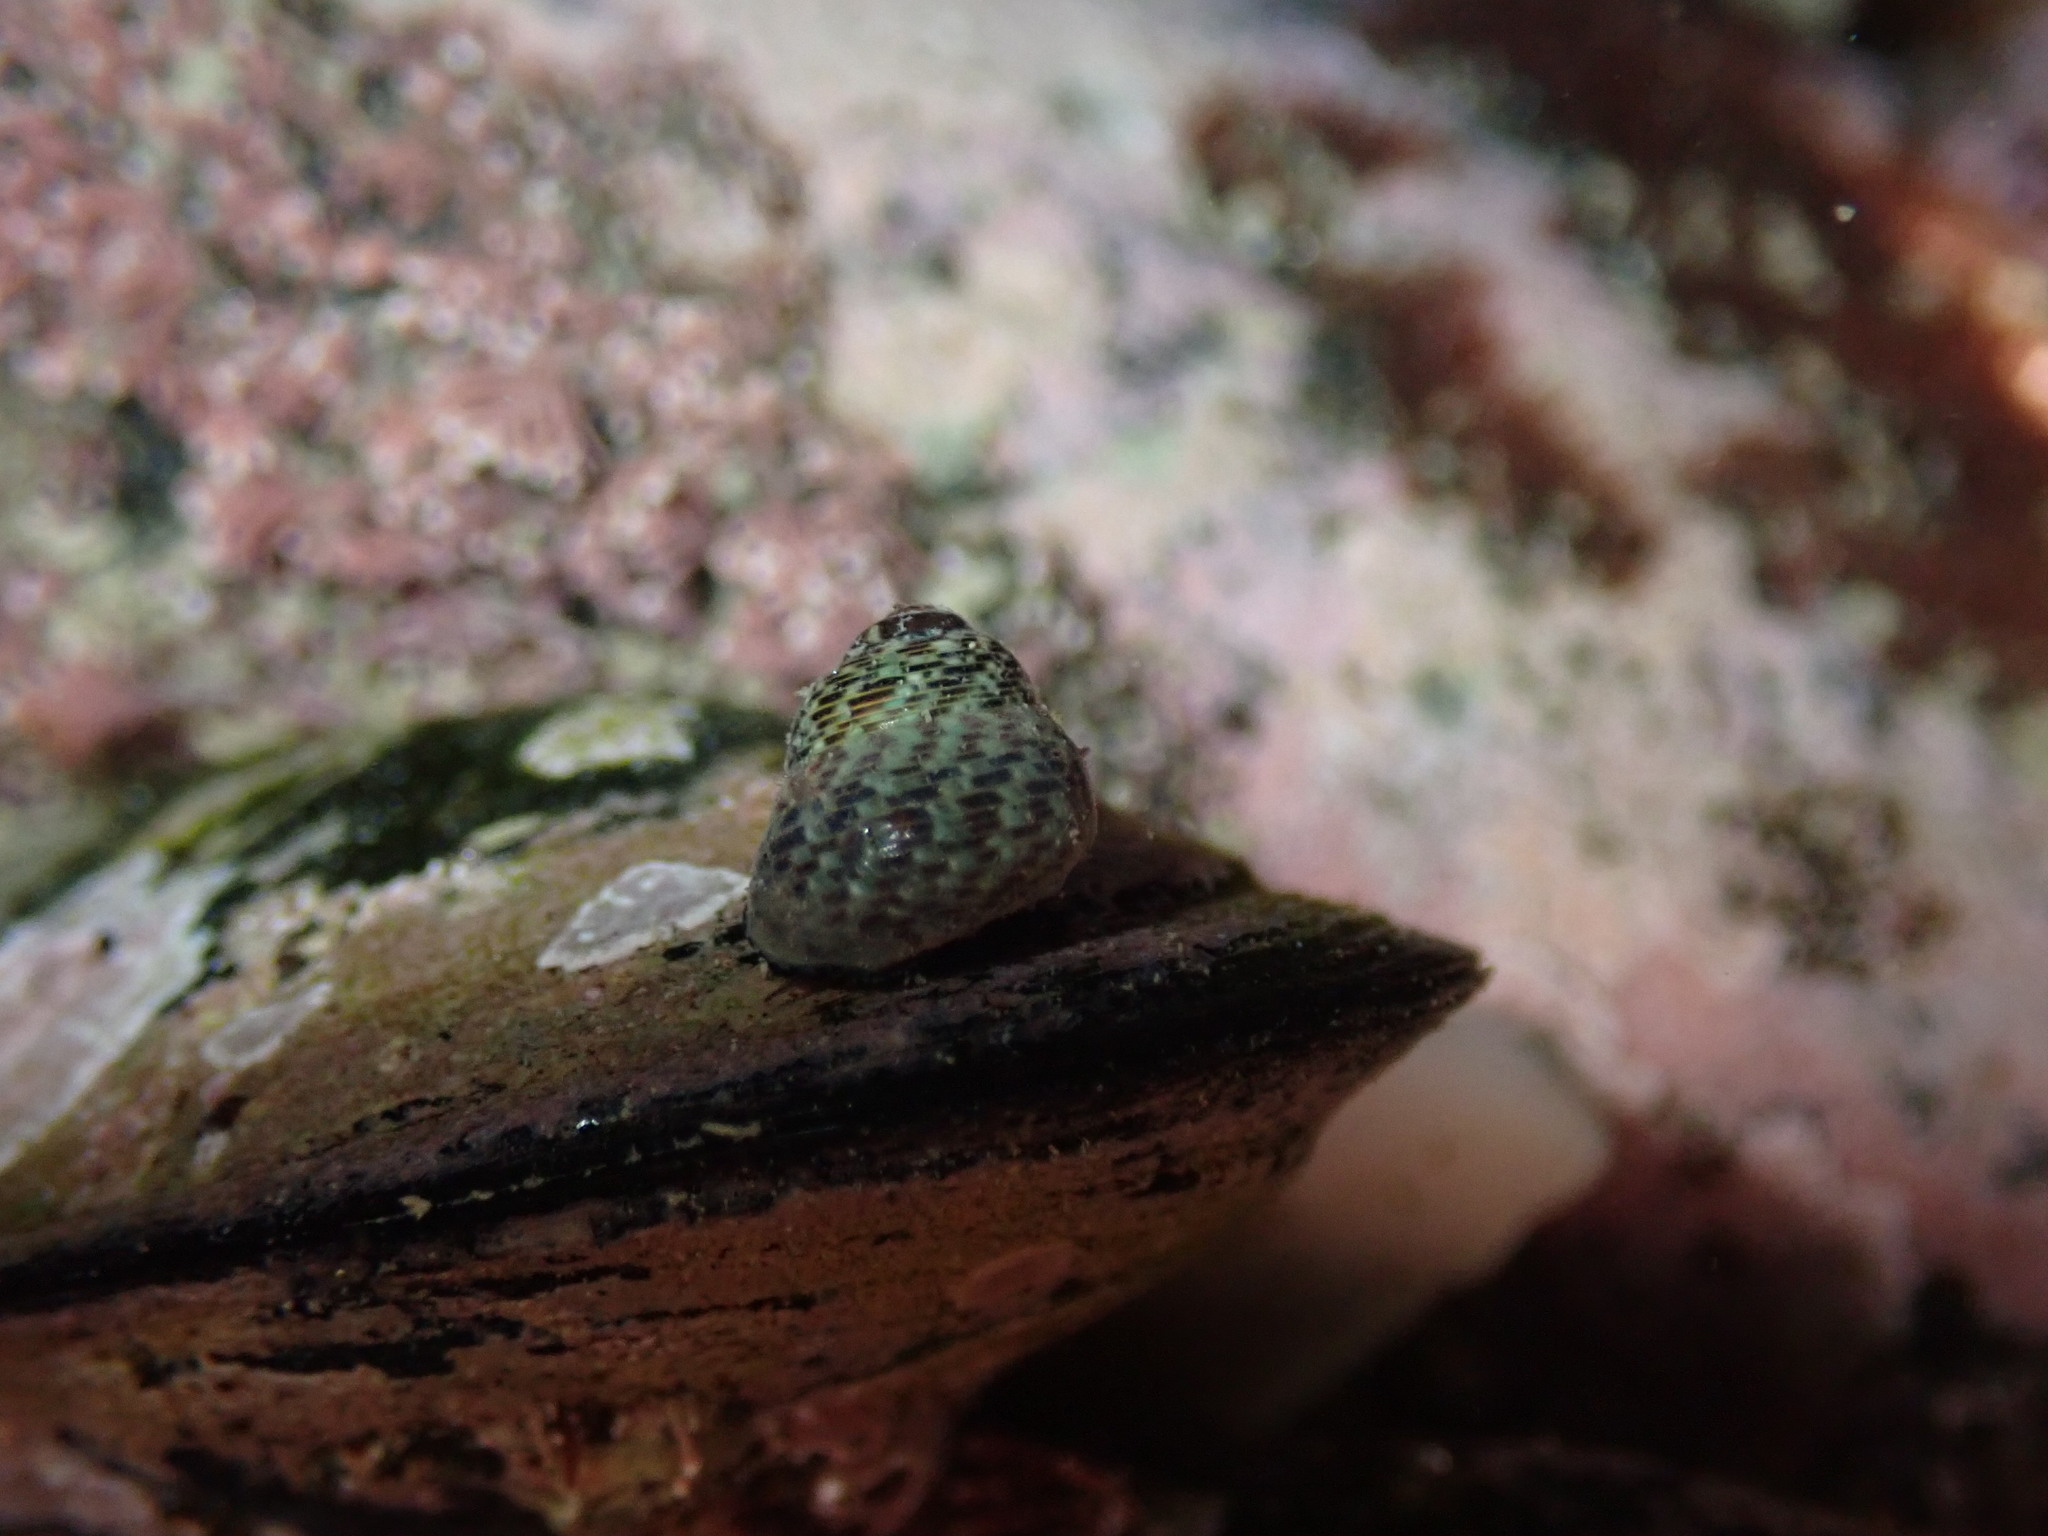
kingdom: Animalia
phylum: Mollusca
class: Gastropoda
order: Trochida
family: Trochidae
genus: Micrelenchus
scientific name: Micrelenchus tessellatus
